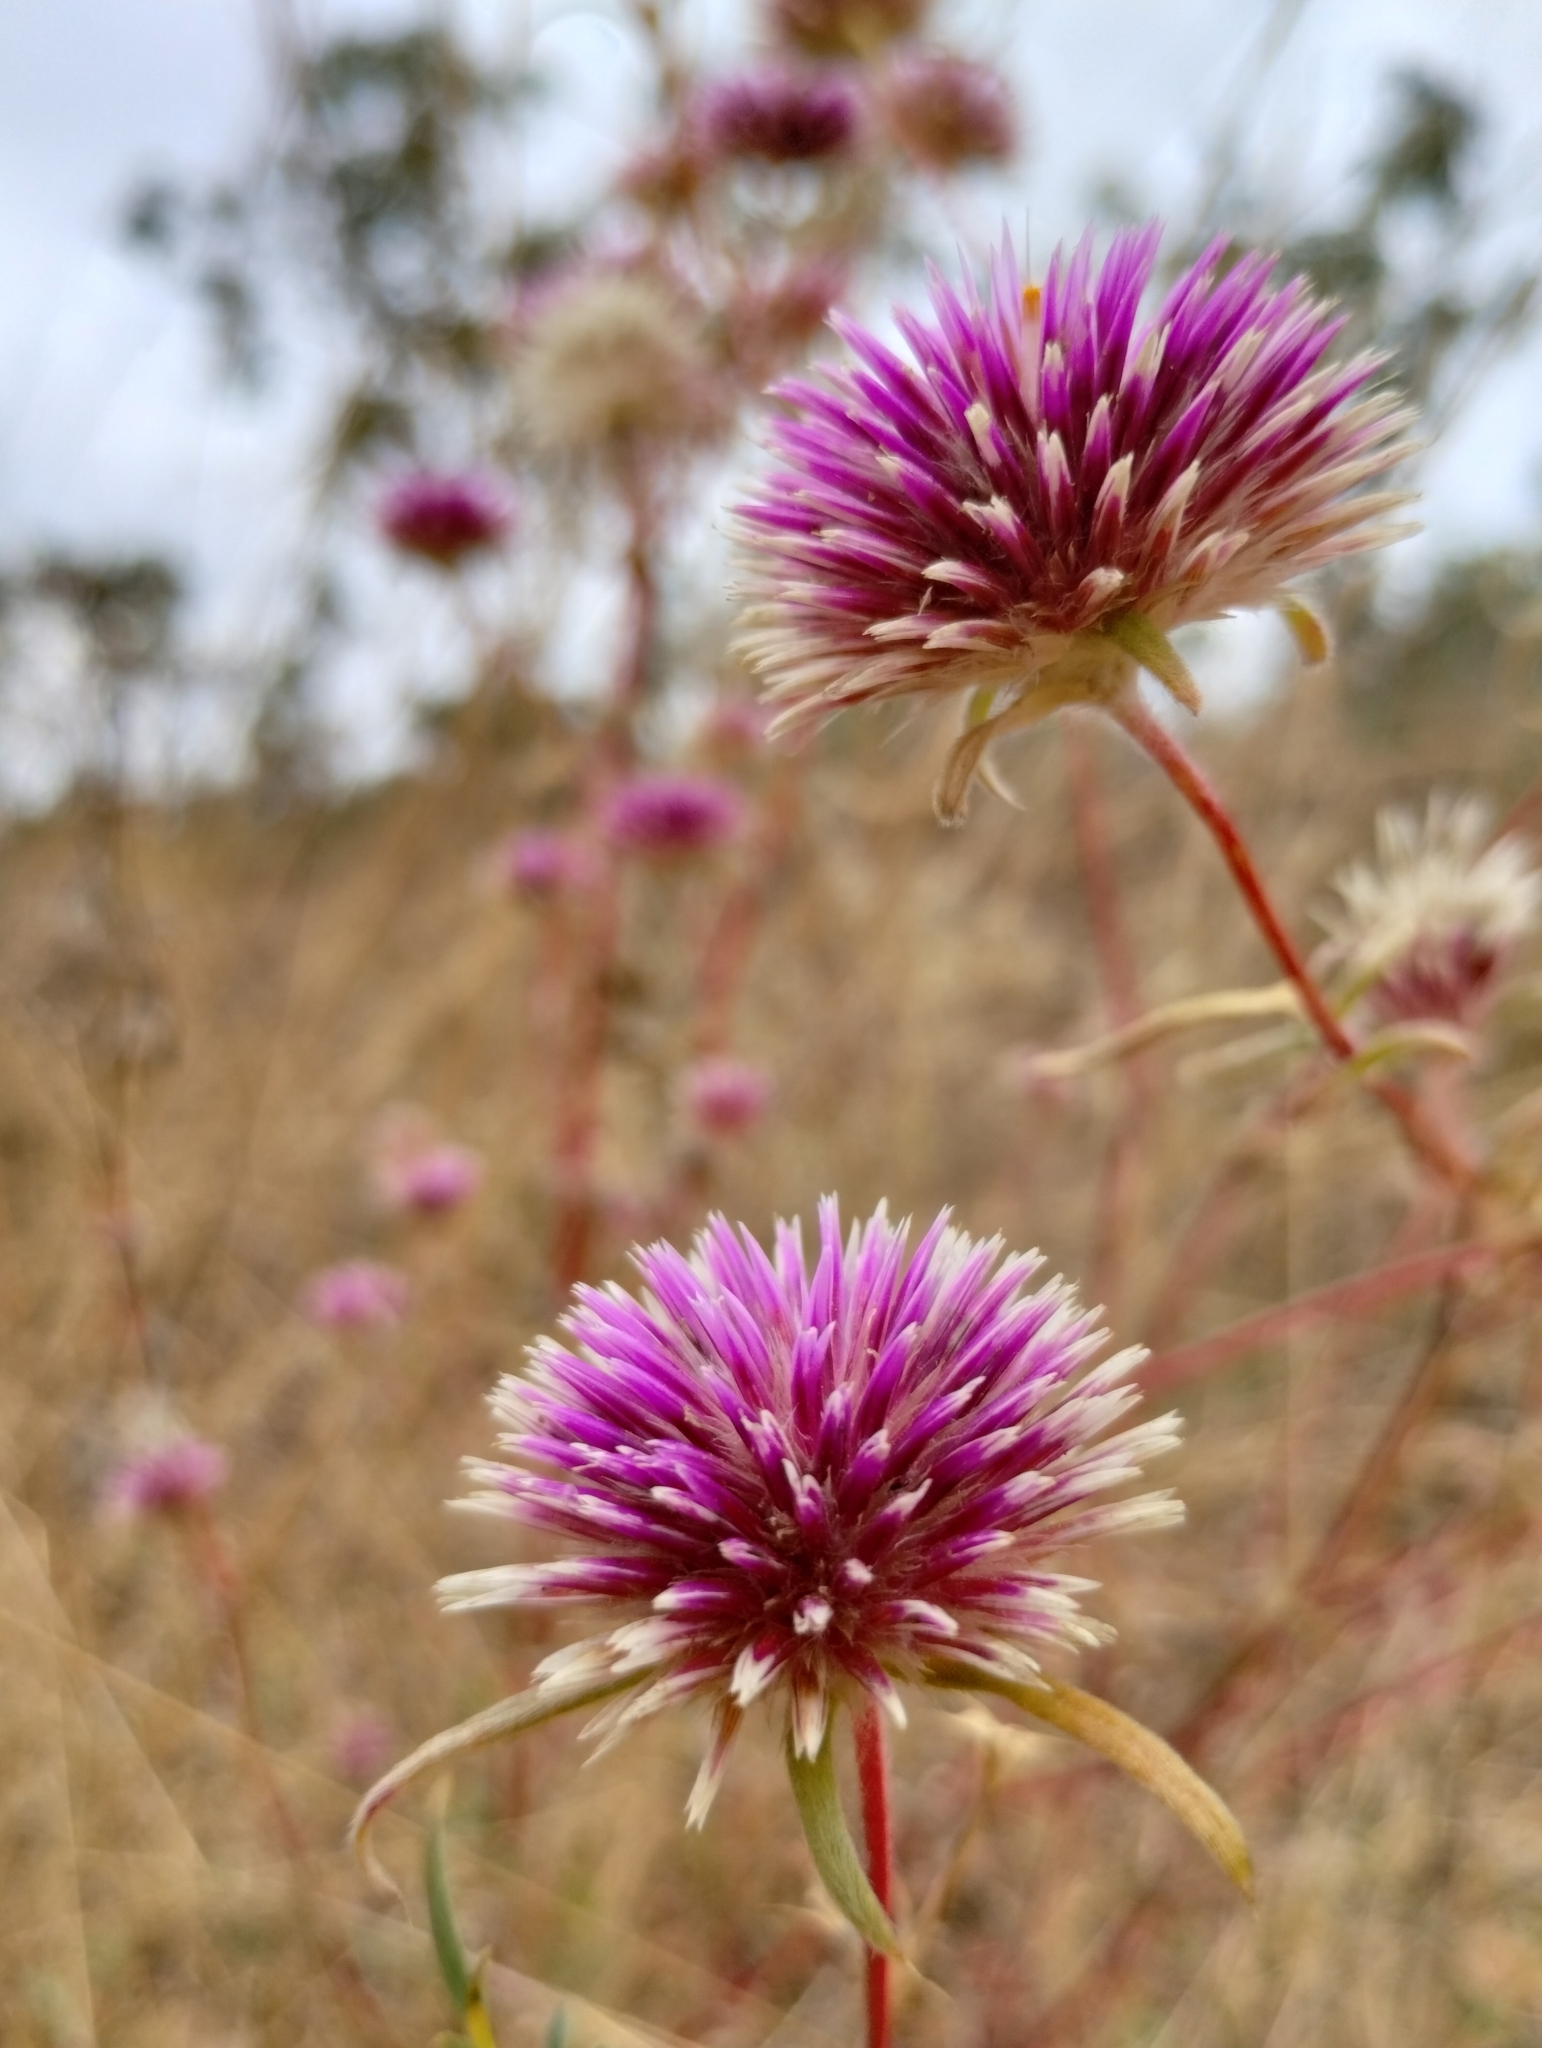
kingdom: Plantae
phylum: Tracheophyta
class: Magnoliopsida
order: Caryophyllales
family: Amaranthaceae
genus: Gomphrena
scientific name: Gomphrena canescens
